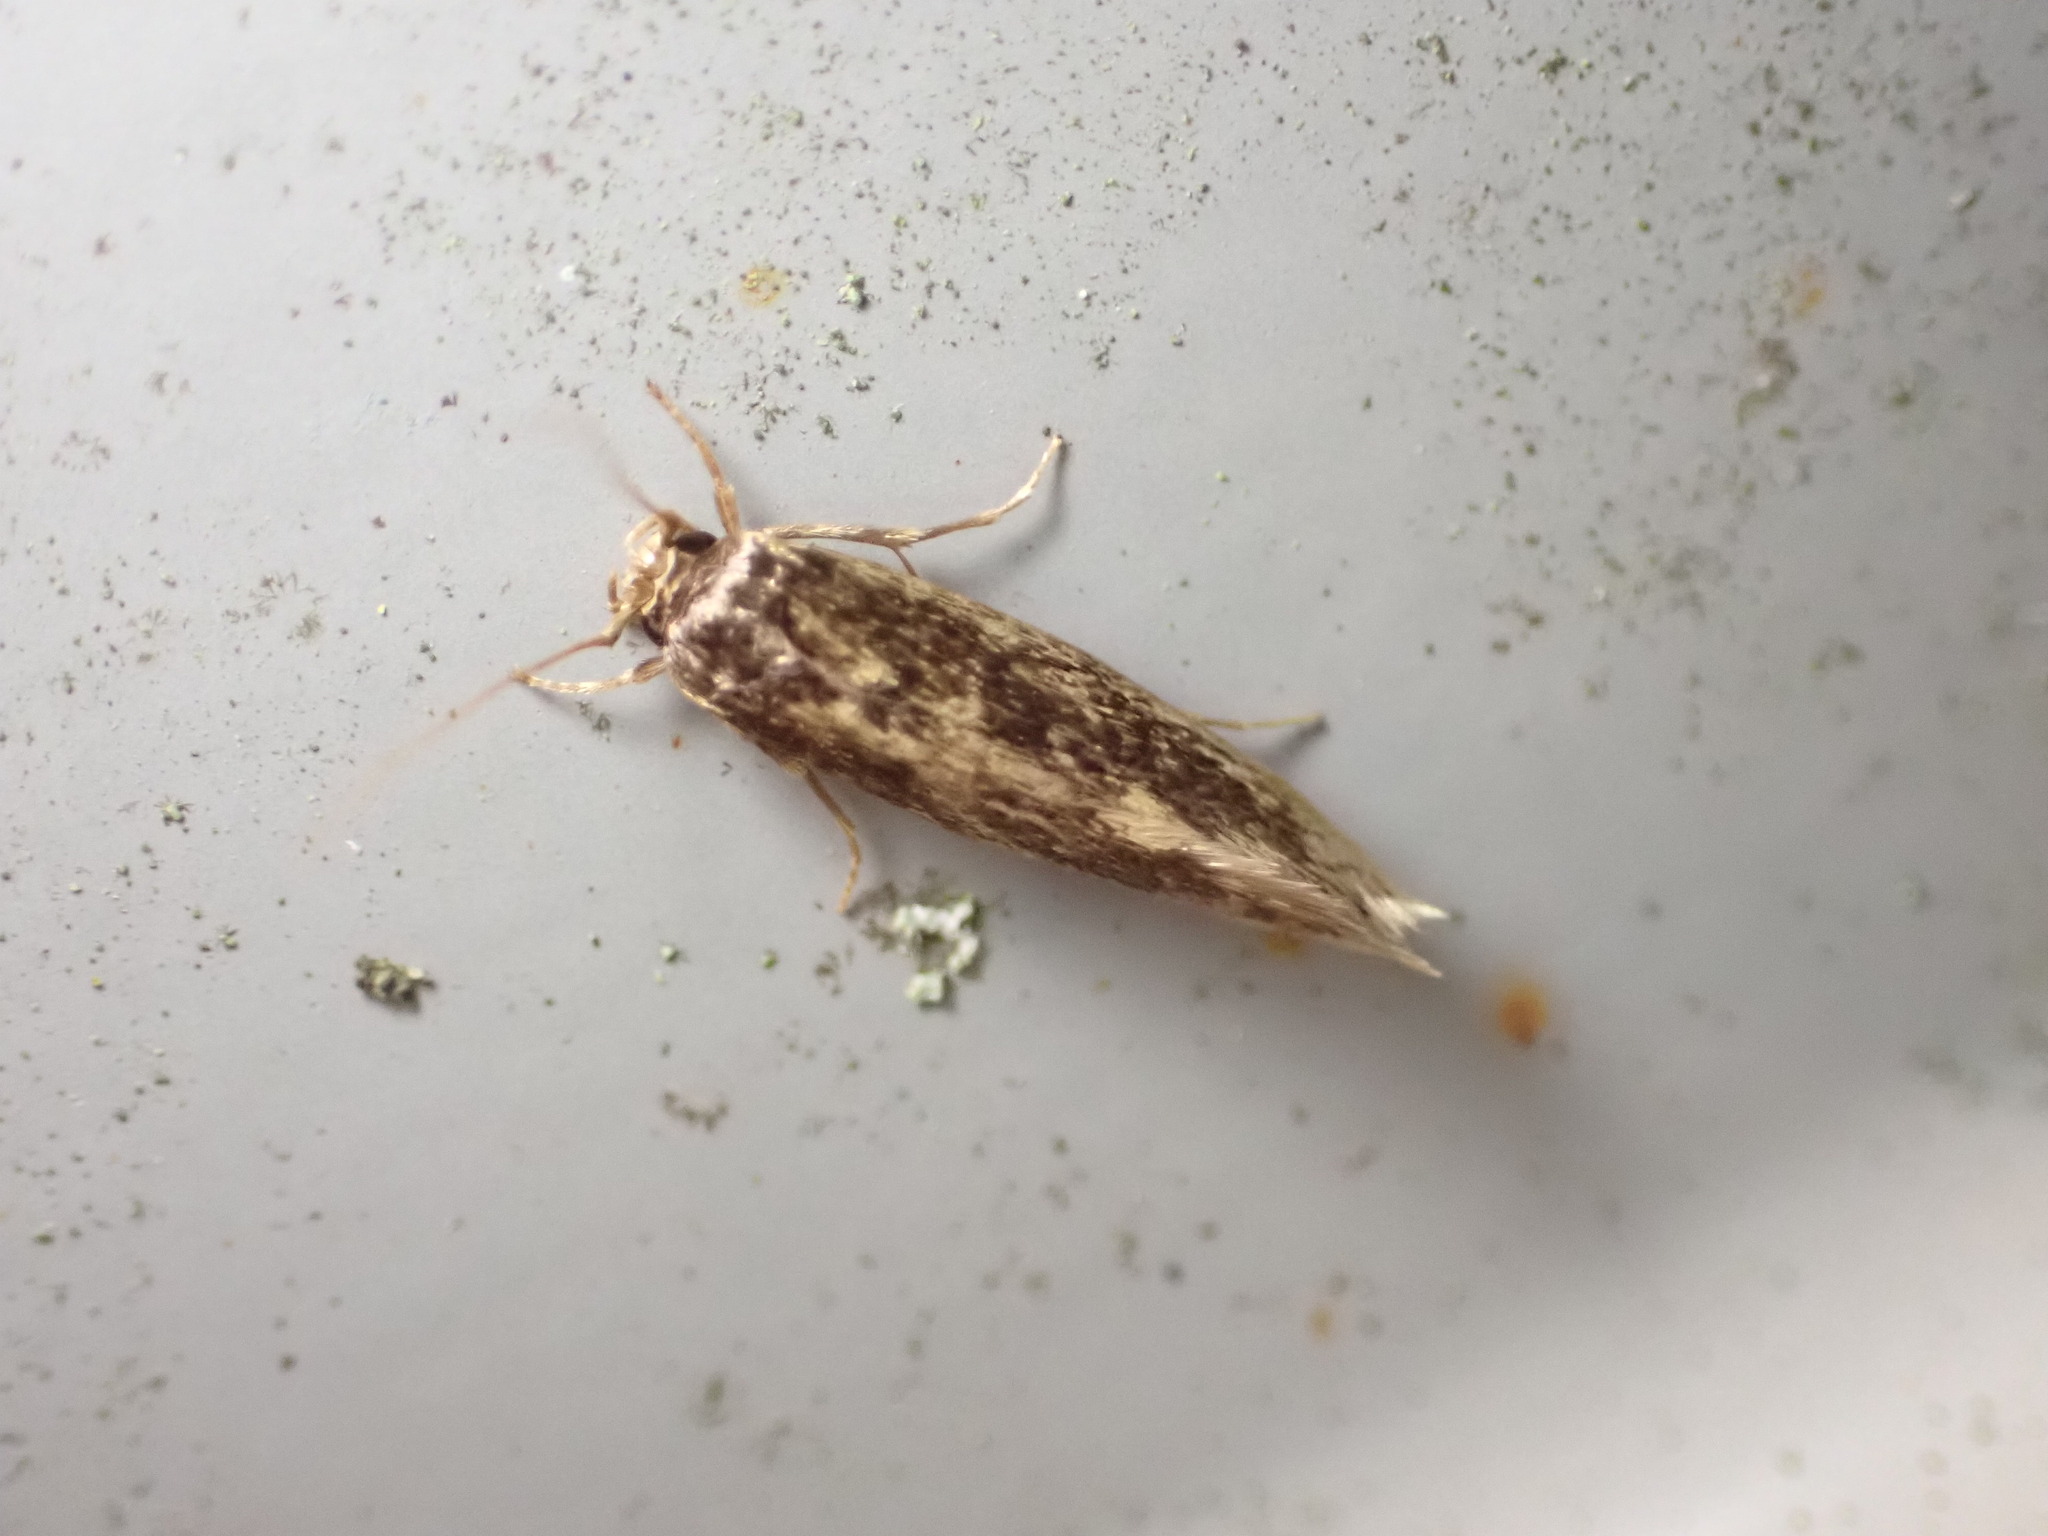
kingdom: Animalia
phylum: Arthropoda
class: Insecta
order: Lepidoptera
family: Tineidae
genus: Opogona
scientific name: Opogona omoscopa
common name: Moth
